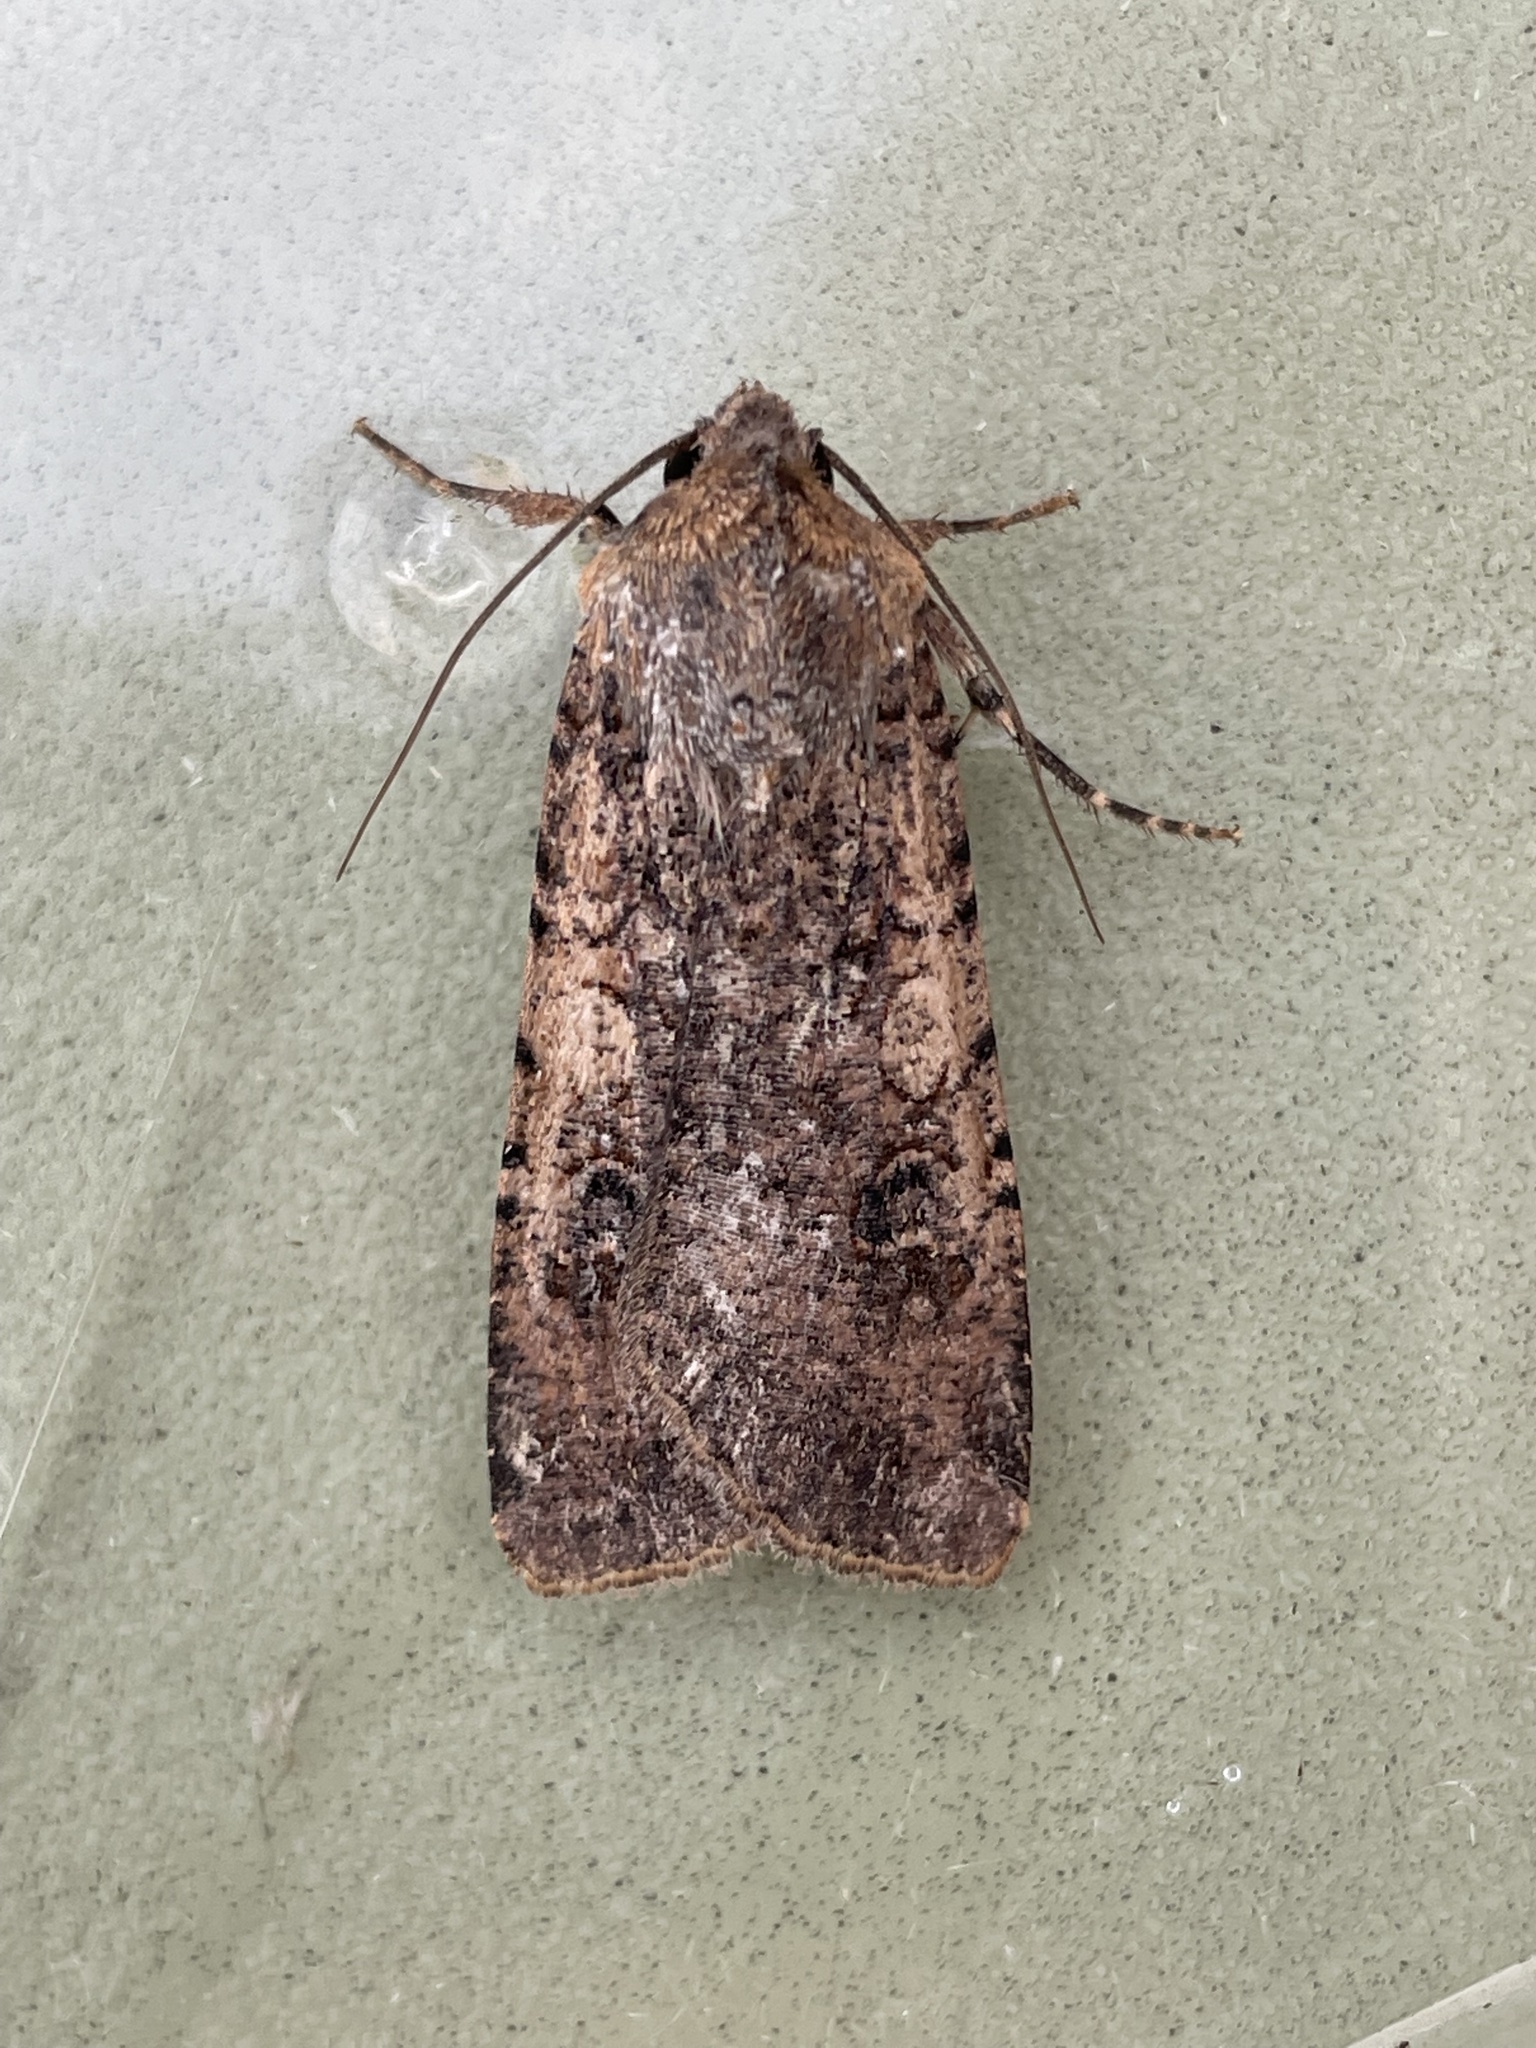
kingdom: Animalia
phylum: Arthropoda
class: Insecta
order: Lepidoptera
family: Noctuidae
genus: Peridroma
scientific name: Peridroma saucia
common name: Pearly underwing
